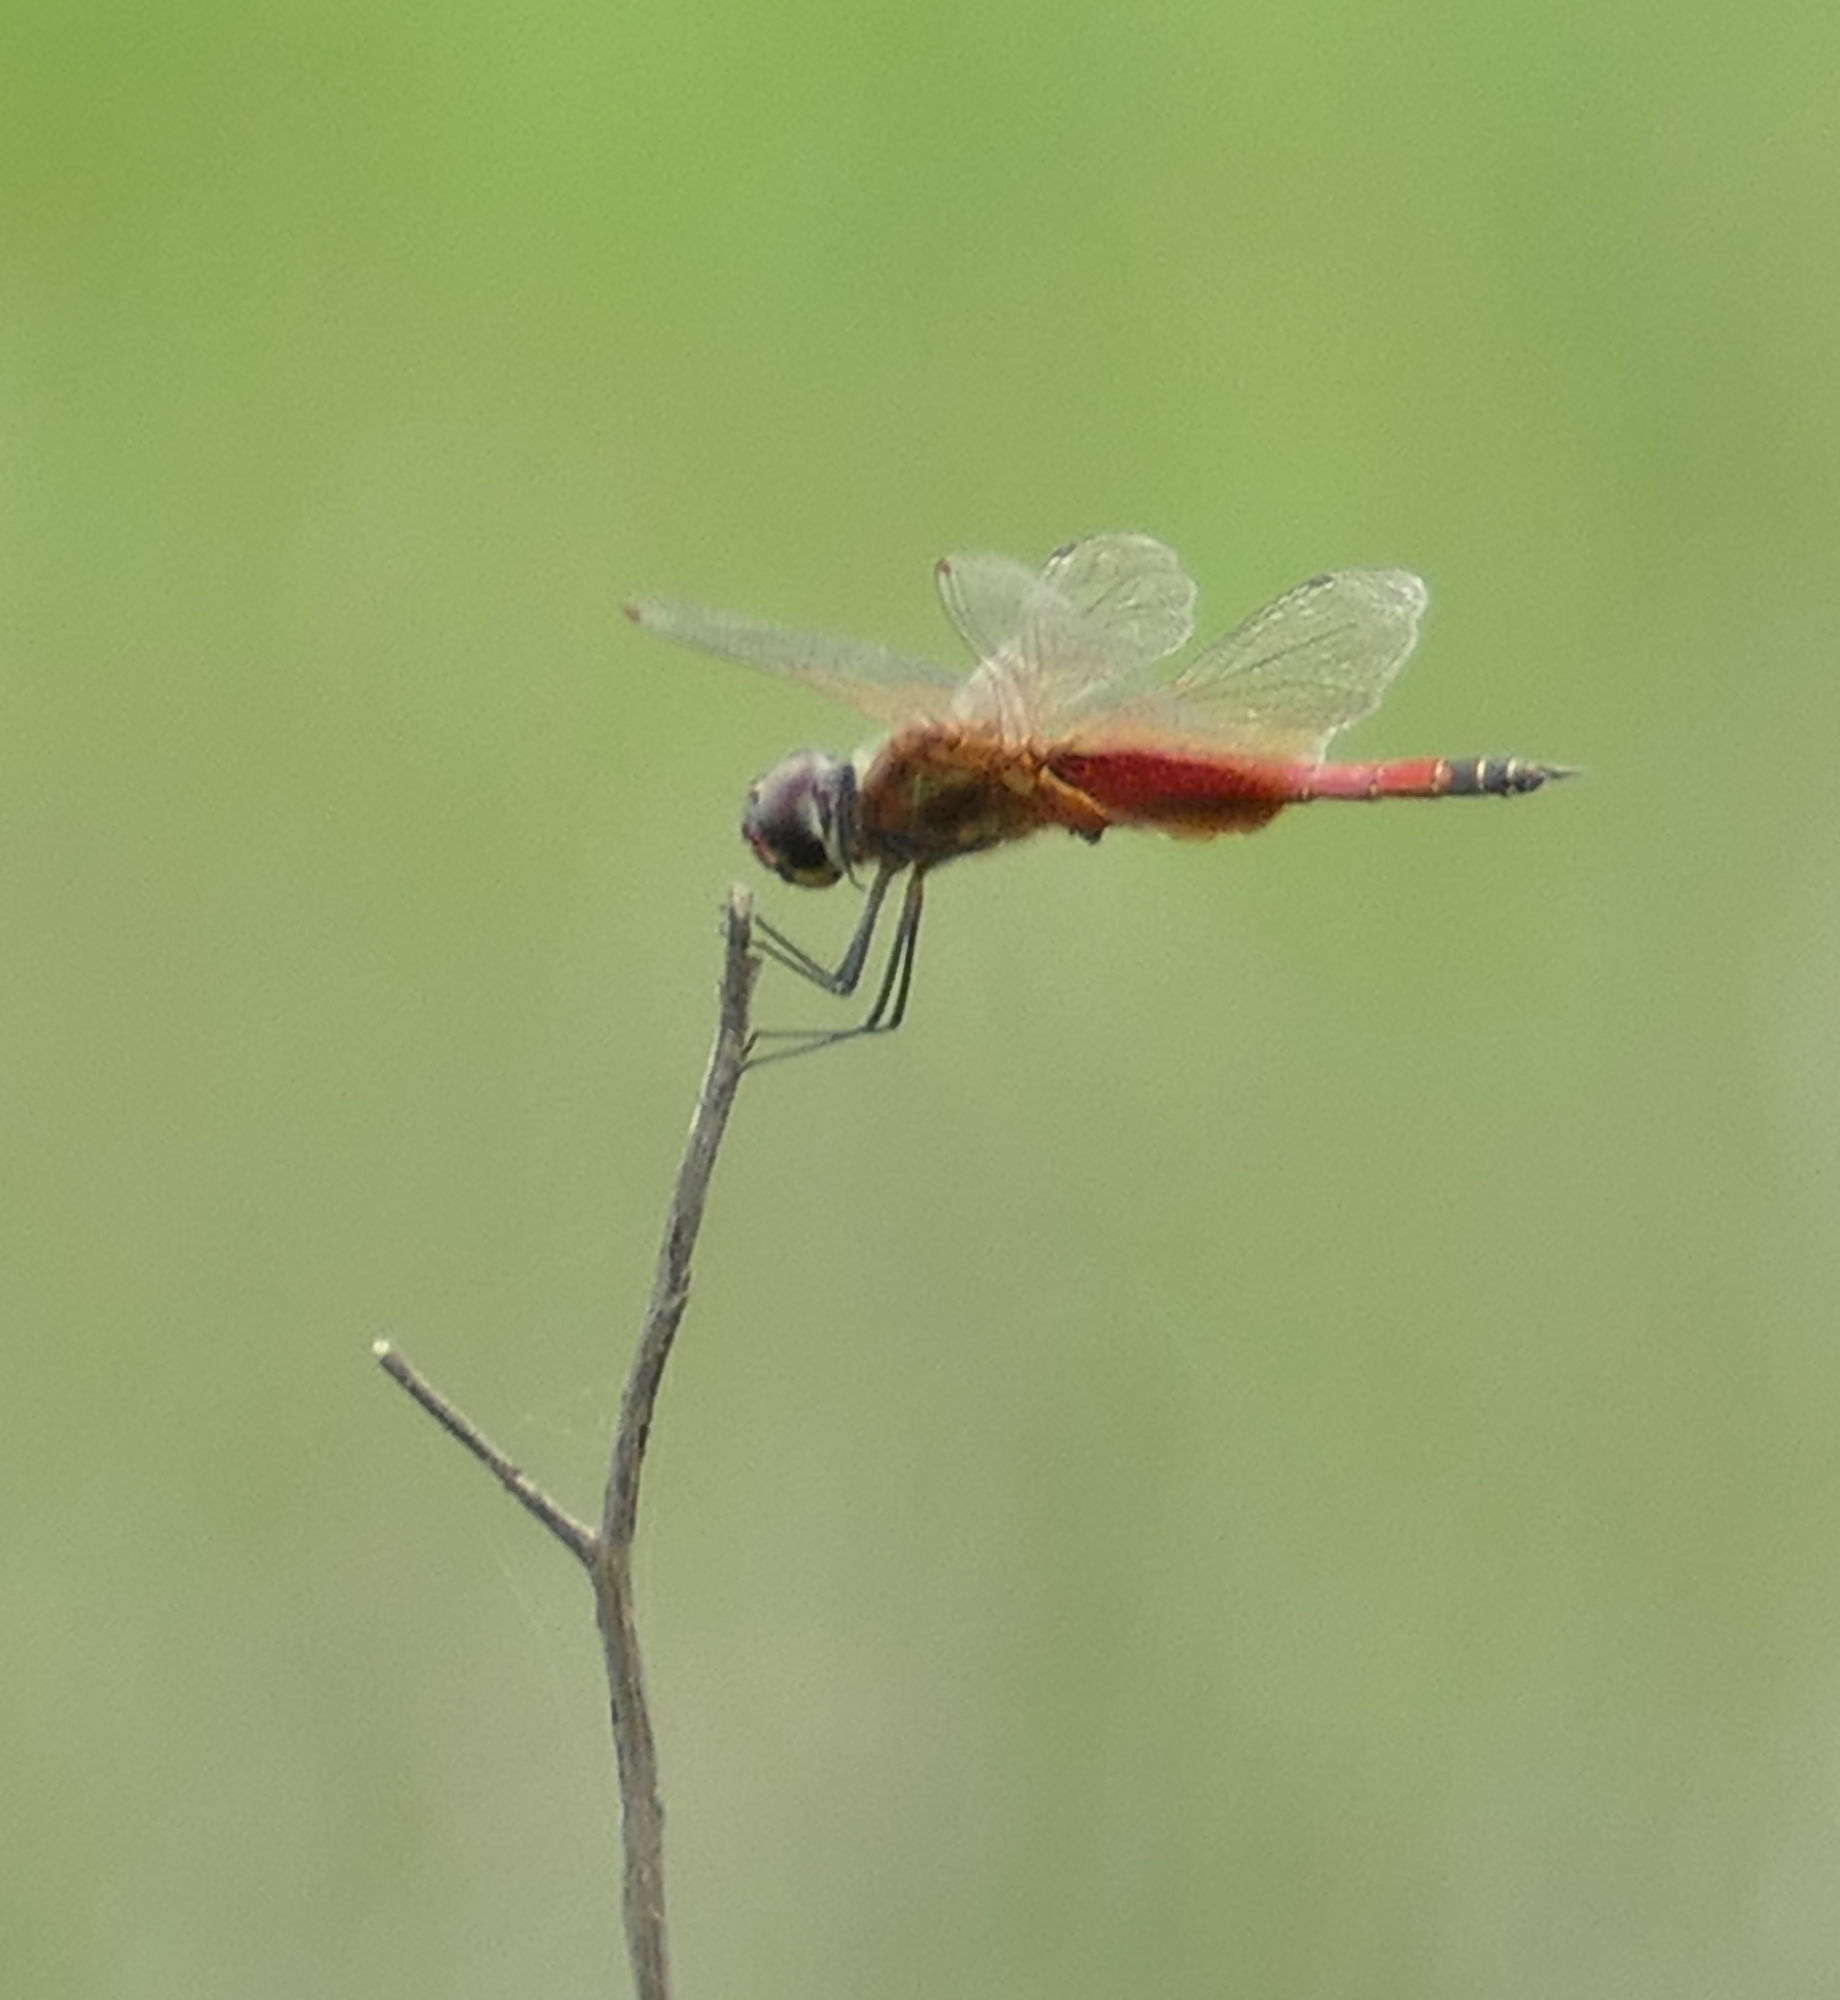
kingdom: Animalia
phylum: Arthropoda
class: Insecta
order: Odonata
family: Libellulidae
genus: Tramea
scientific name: Tramea darwini
